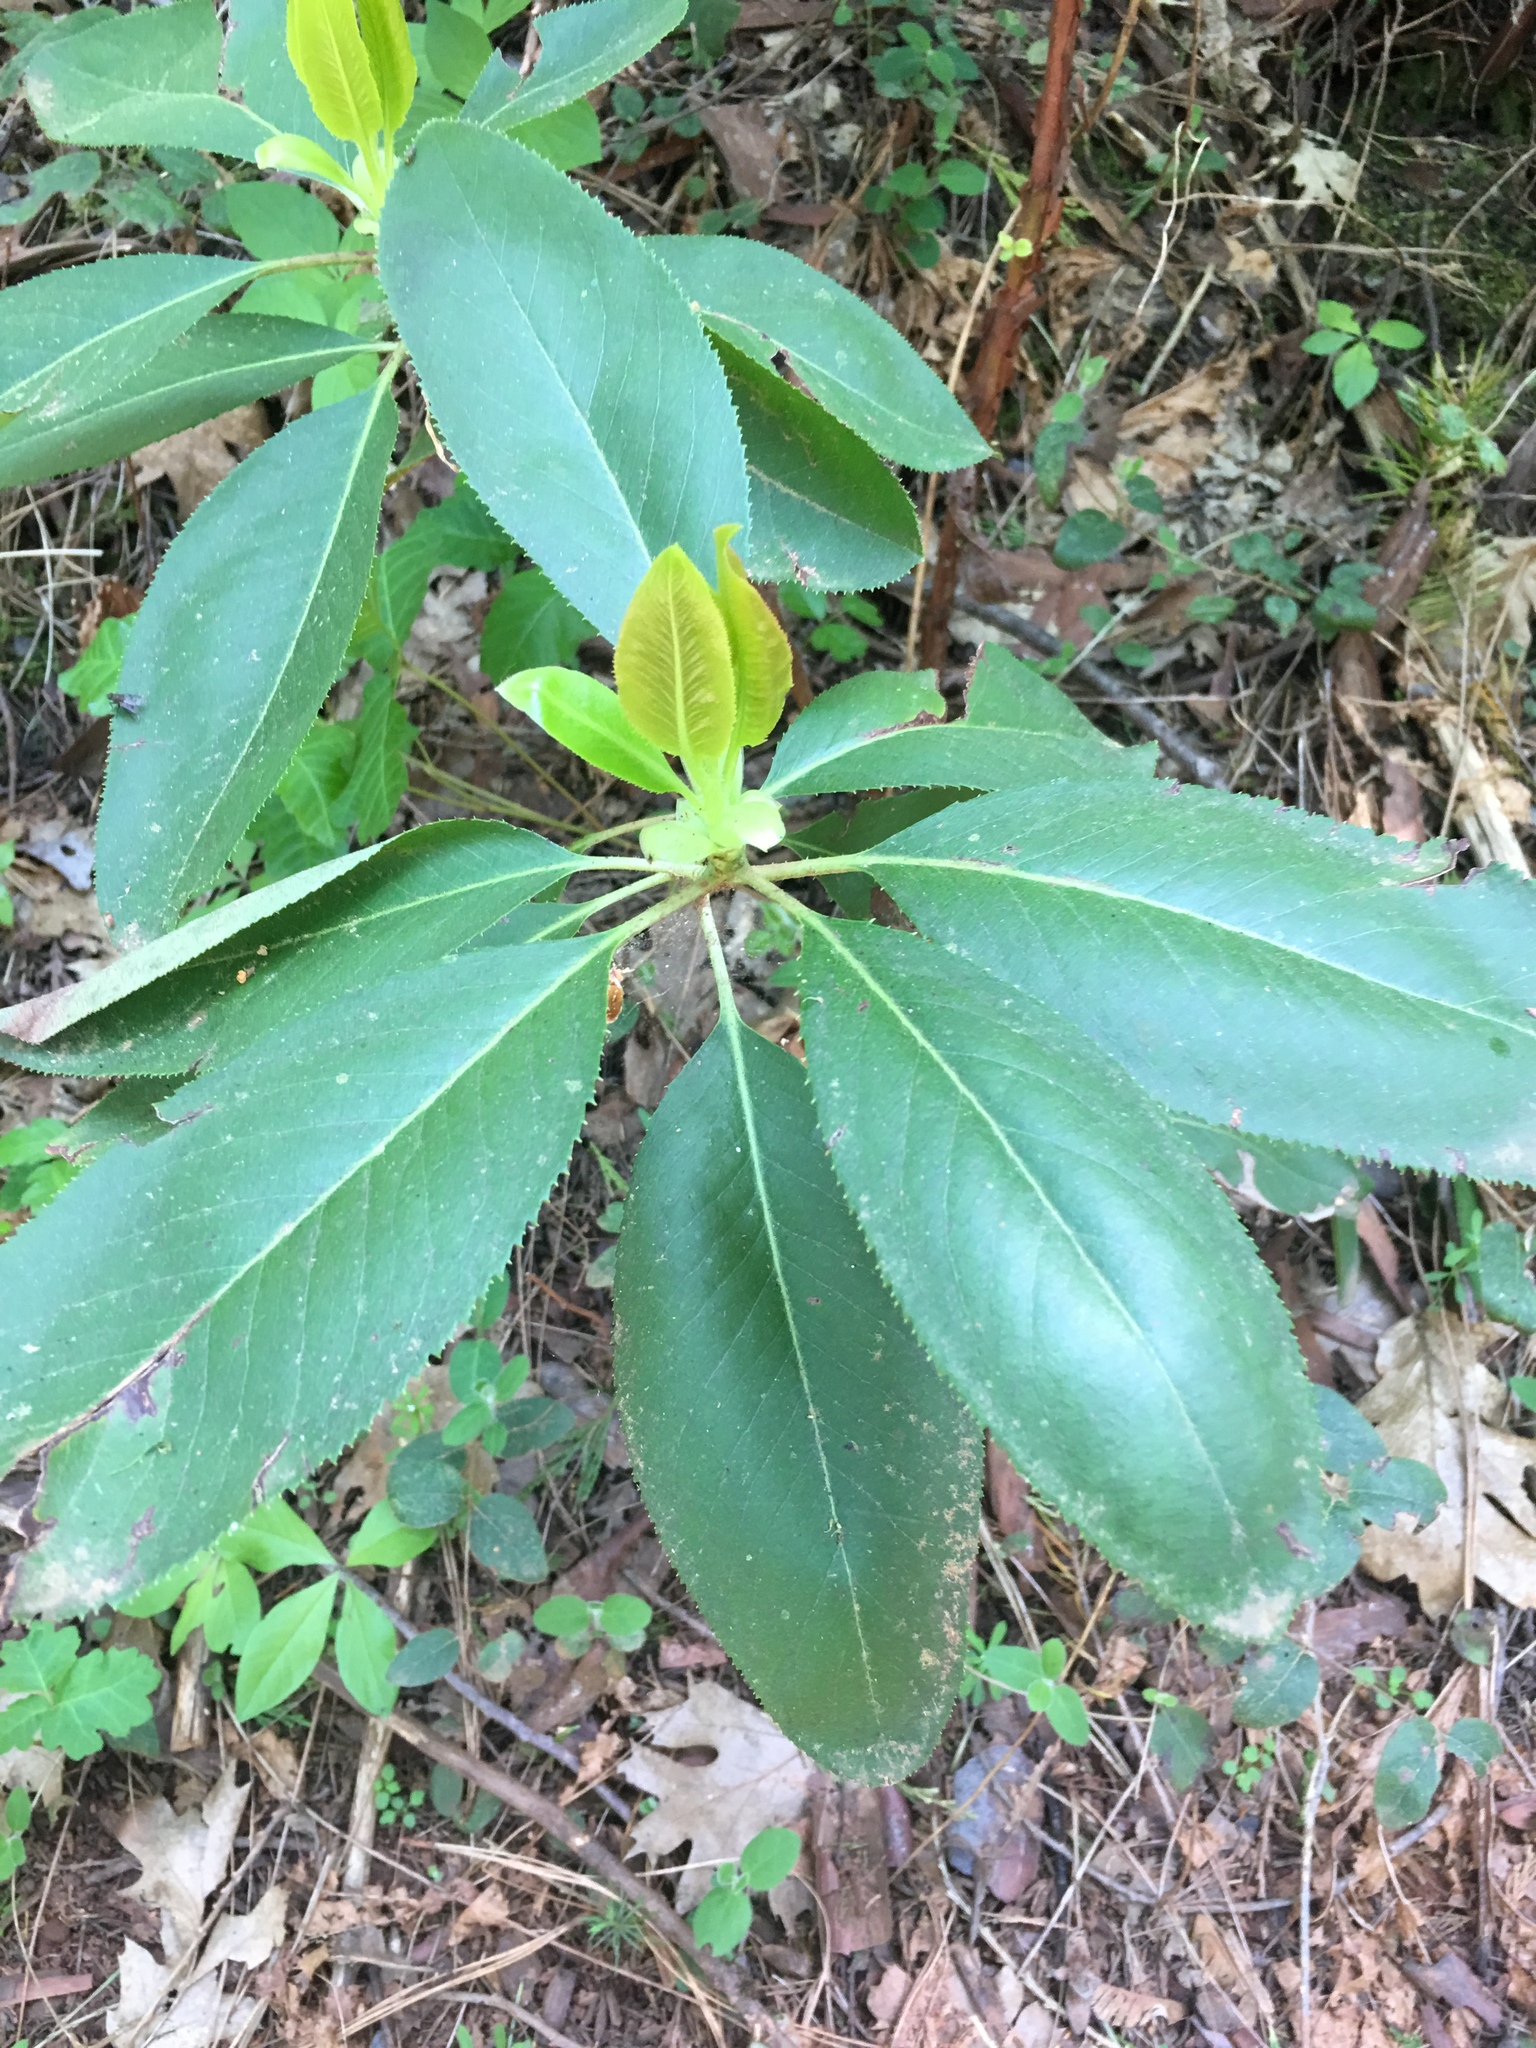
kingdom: Plantae
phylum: Tracheophyta
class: Magnoliopsida
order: Ericales
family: Ericaceae
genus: Arbutus
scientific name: Arbutus menziesii
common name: Pacific madrone
